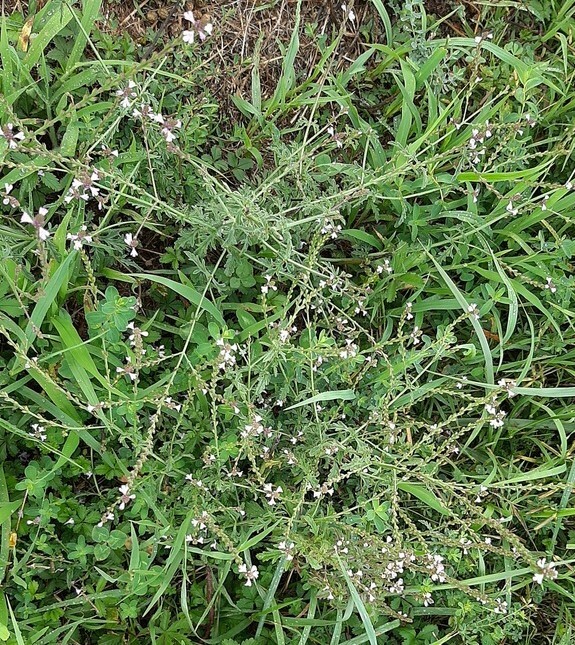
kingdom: Plantae
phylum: Tracheophyta
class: Magnoliopsida
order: Lamiales
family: Verbenaceae
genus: Verbena
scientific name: Verbena officinalis
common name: Vervain
